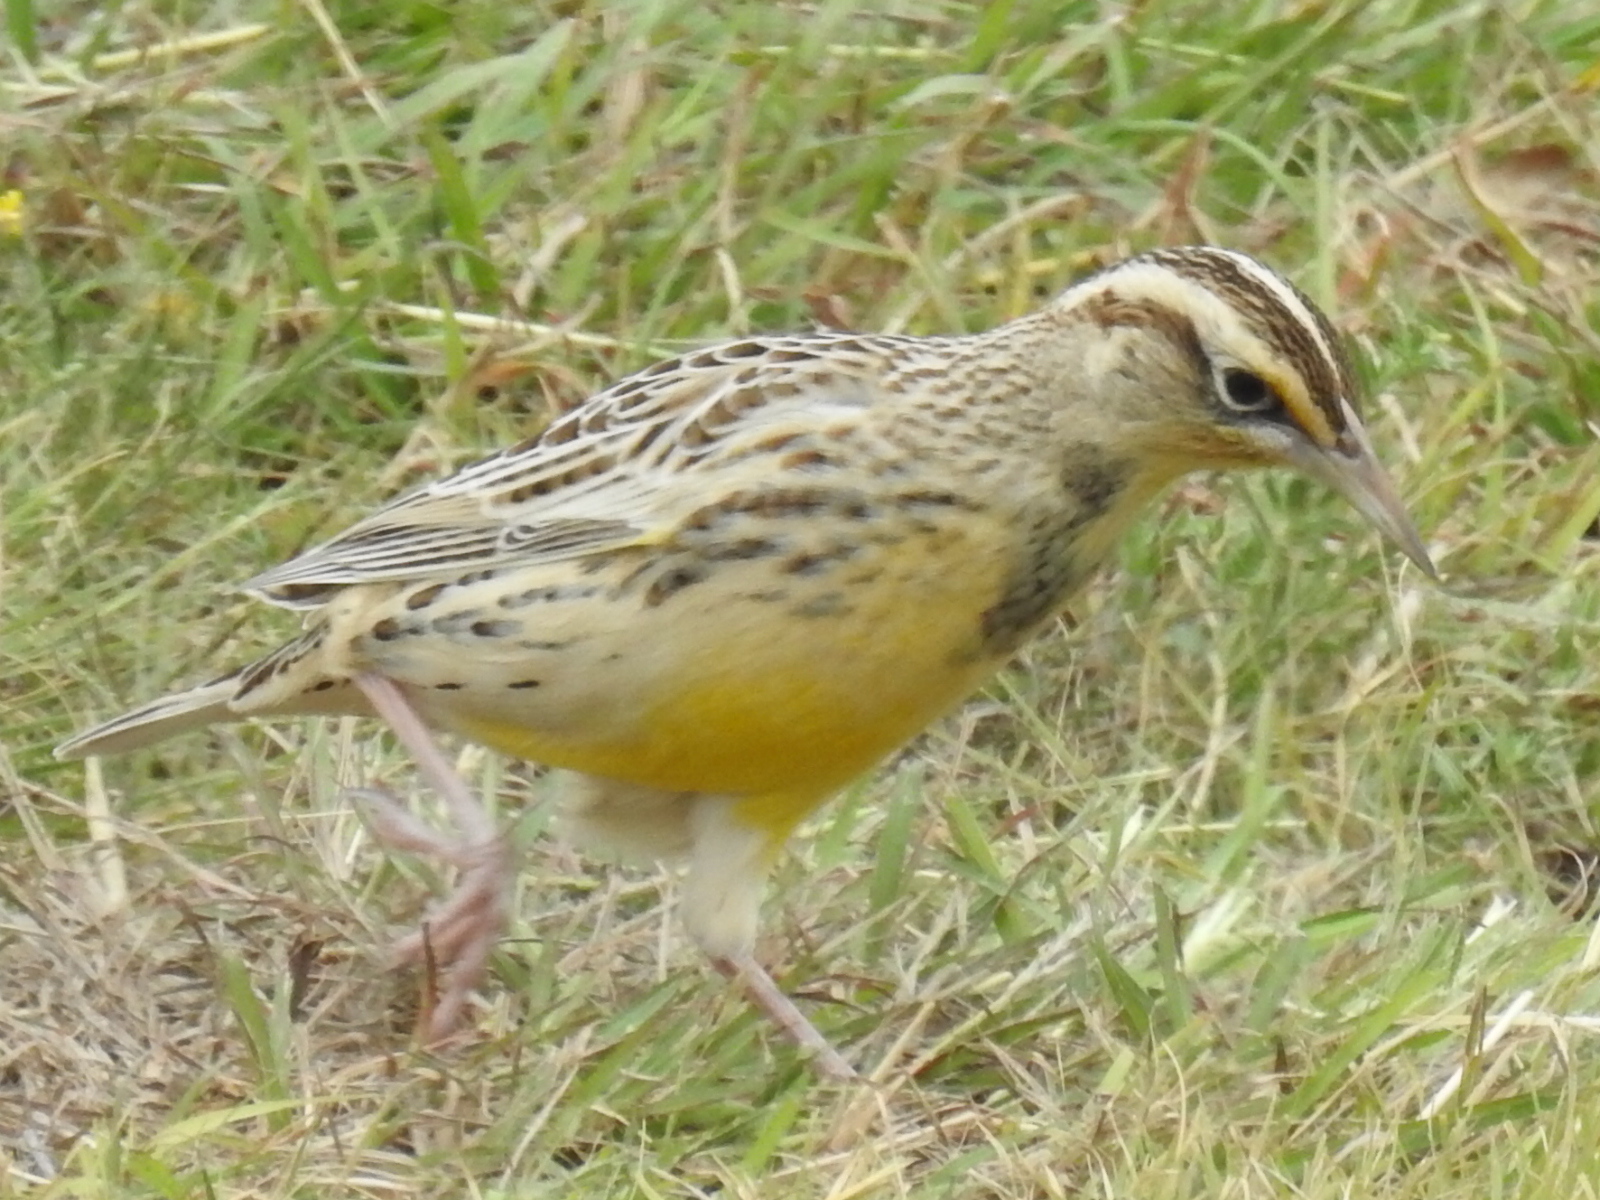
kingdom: Animalia
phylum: Chordata
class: Aves
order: Passeriformes
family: Icteridae
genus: Sturnella
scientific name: Sturnella lilianae
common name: Lilian's meadowlark
